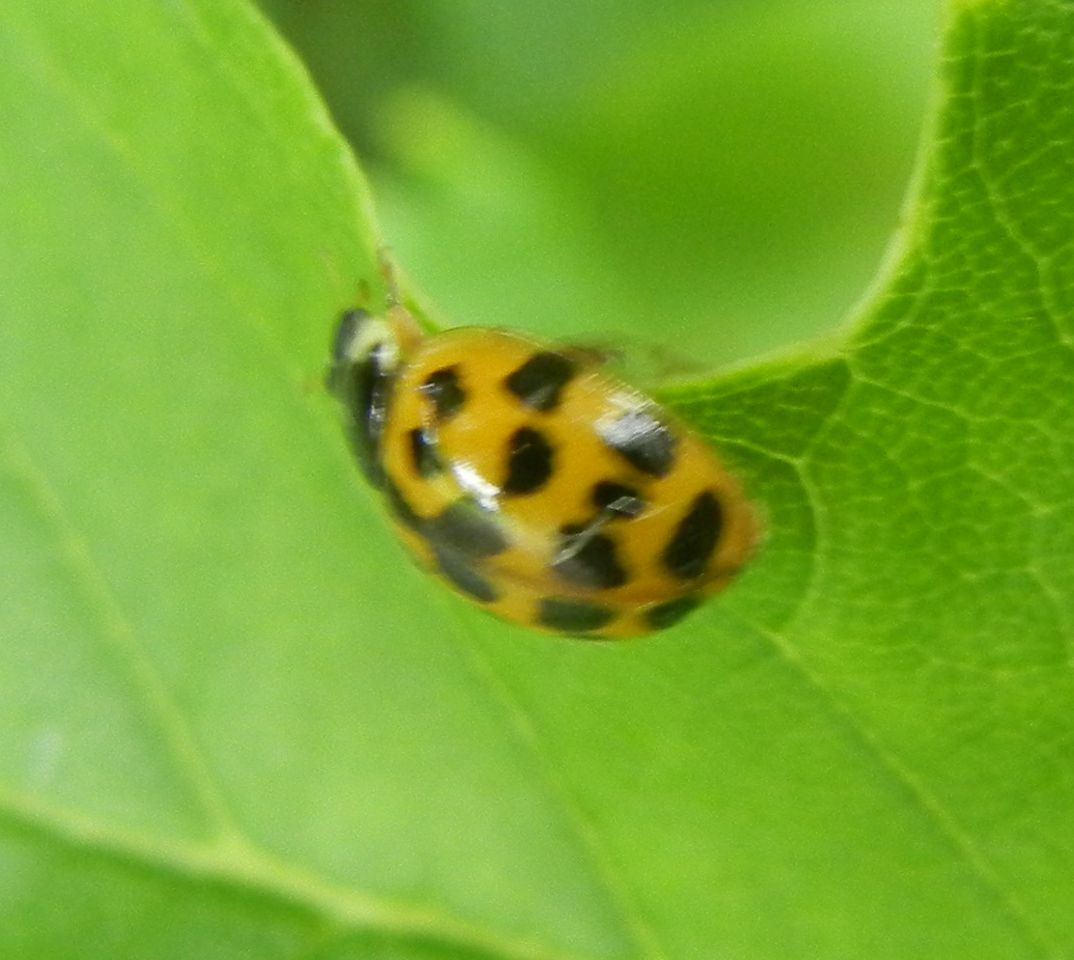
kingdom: Animalia
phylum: Arthropoda
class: Insecta
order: Coleoptera
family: Coccinellidae
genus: Harmonia
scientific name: Harmonia axyridis
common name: Harlequin ladybird
